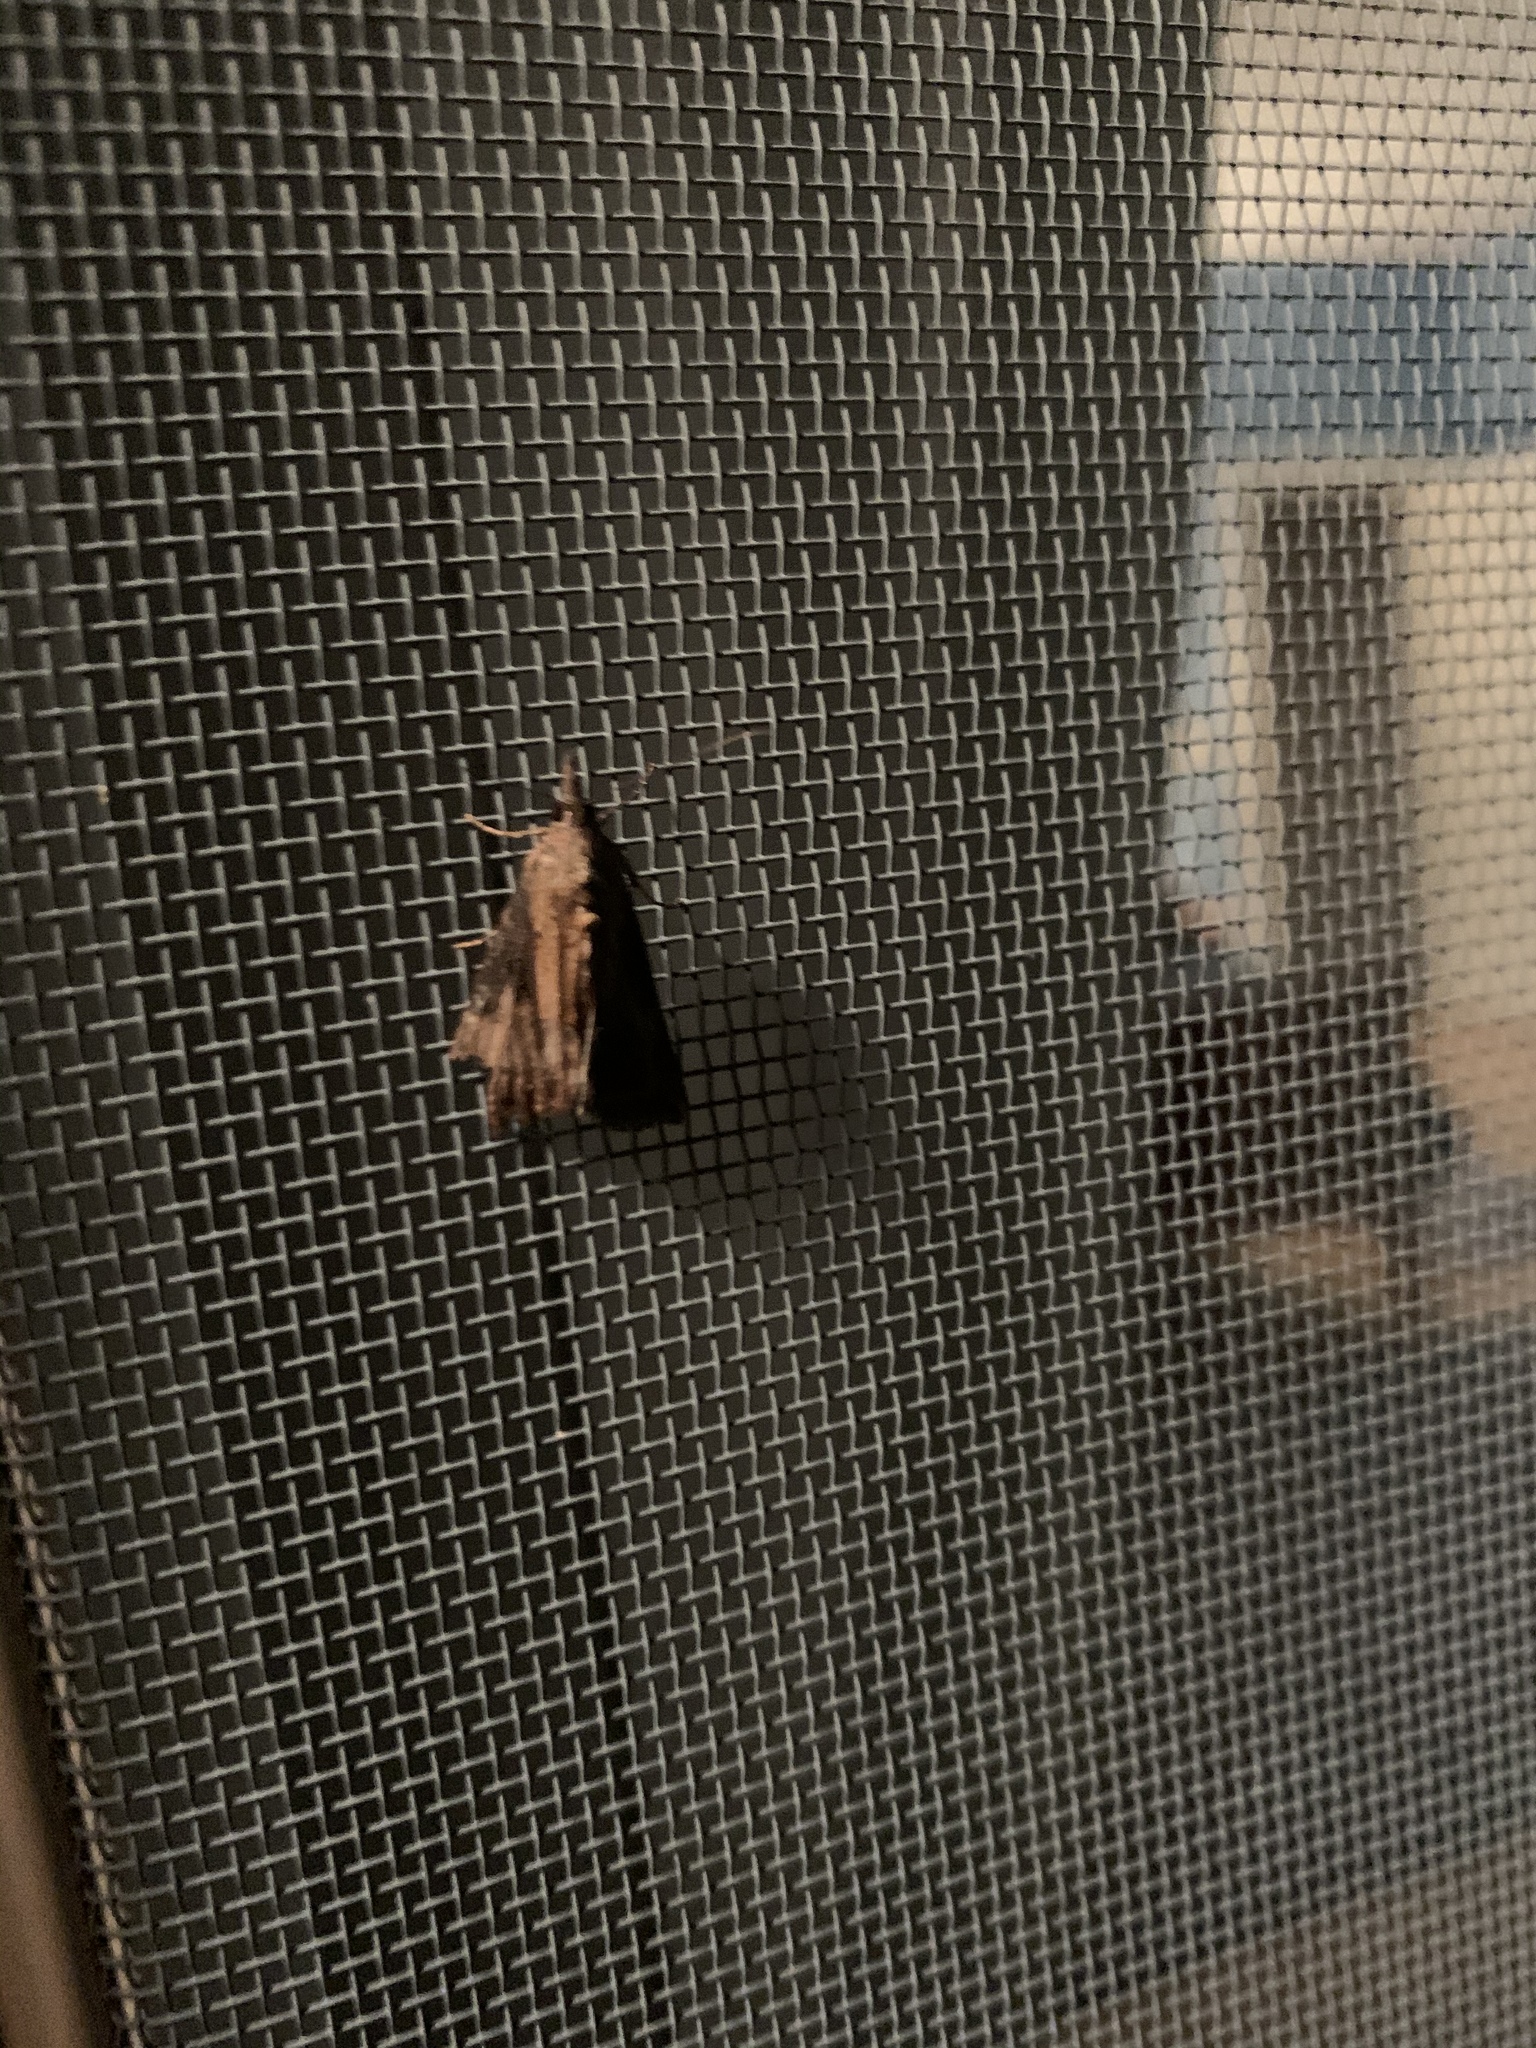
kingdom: Animalia
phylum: Arthropoda
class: Insecta
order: Lepidoptera
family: Erebidae
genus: Hypena
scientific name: Hypena scabra
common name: Green cloverworm
